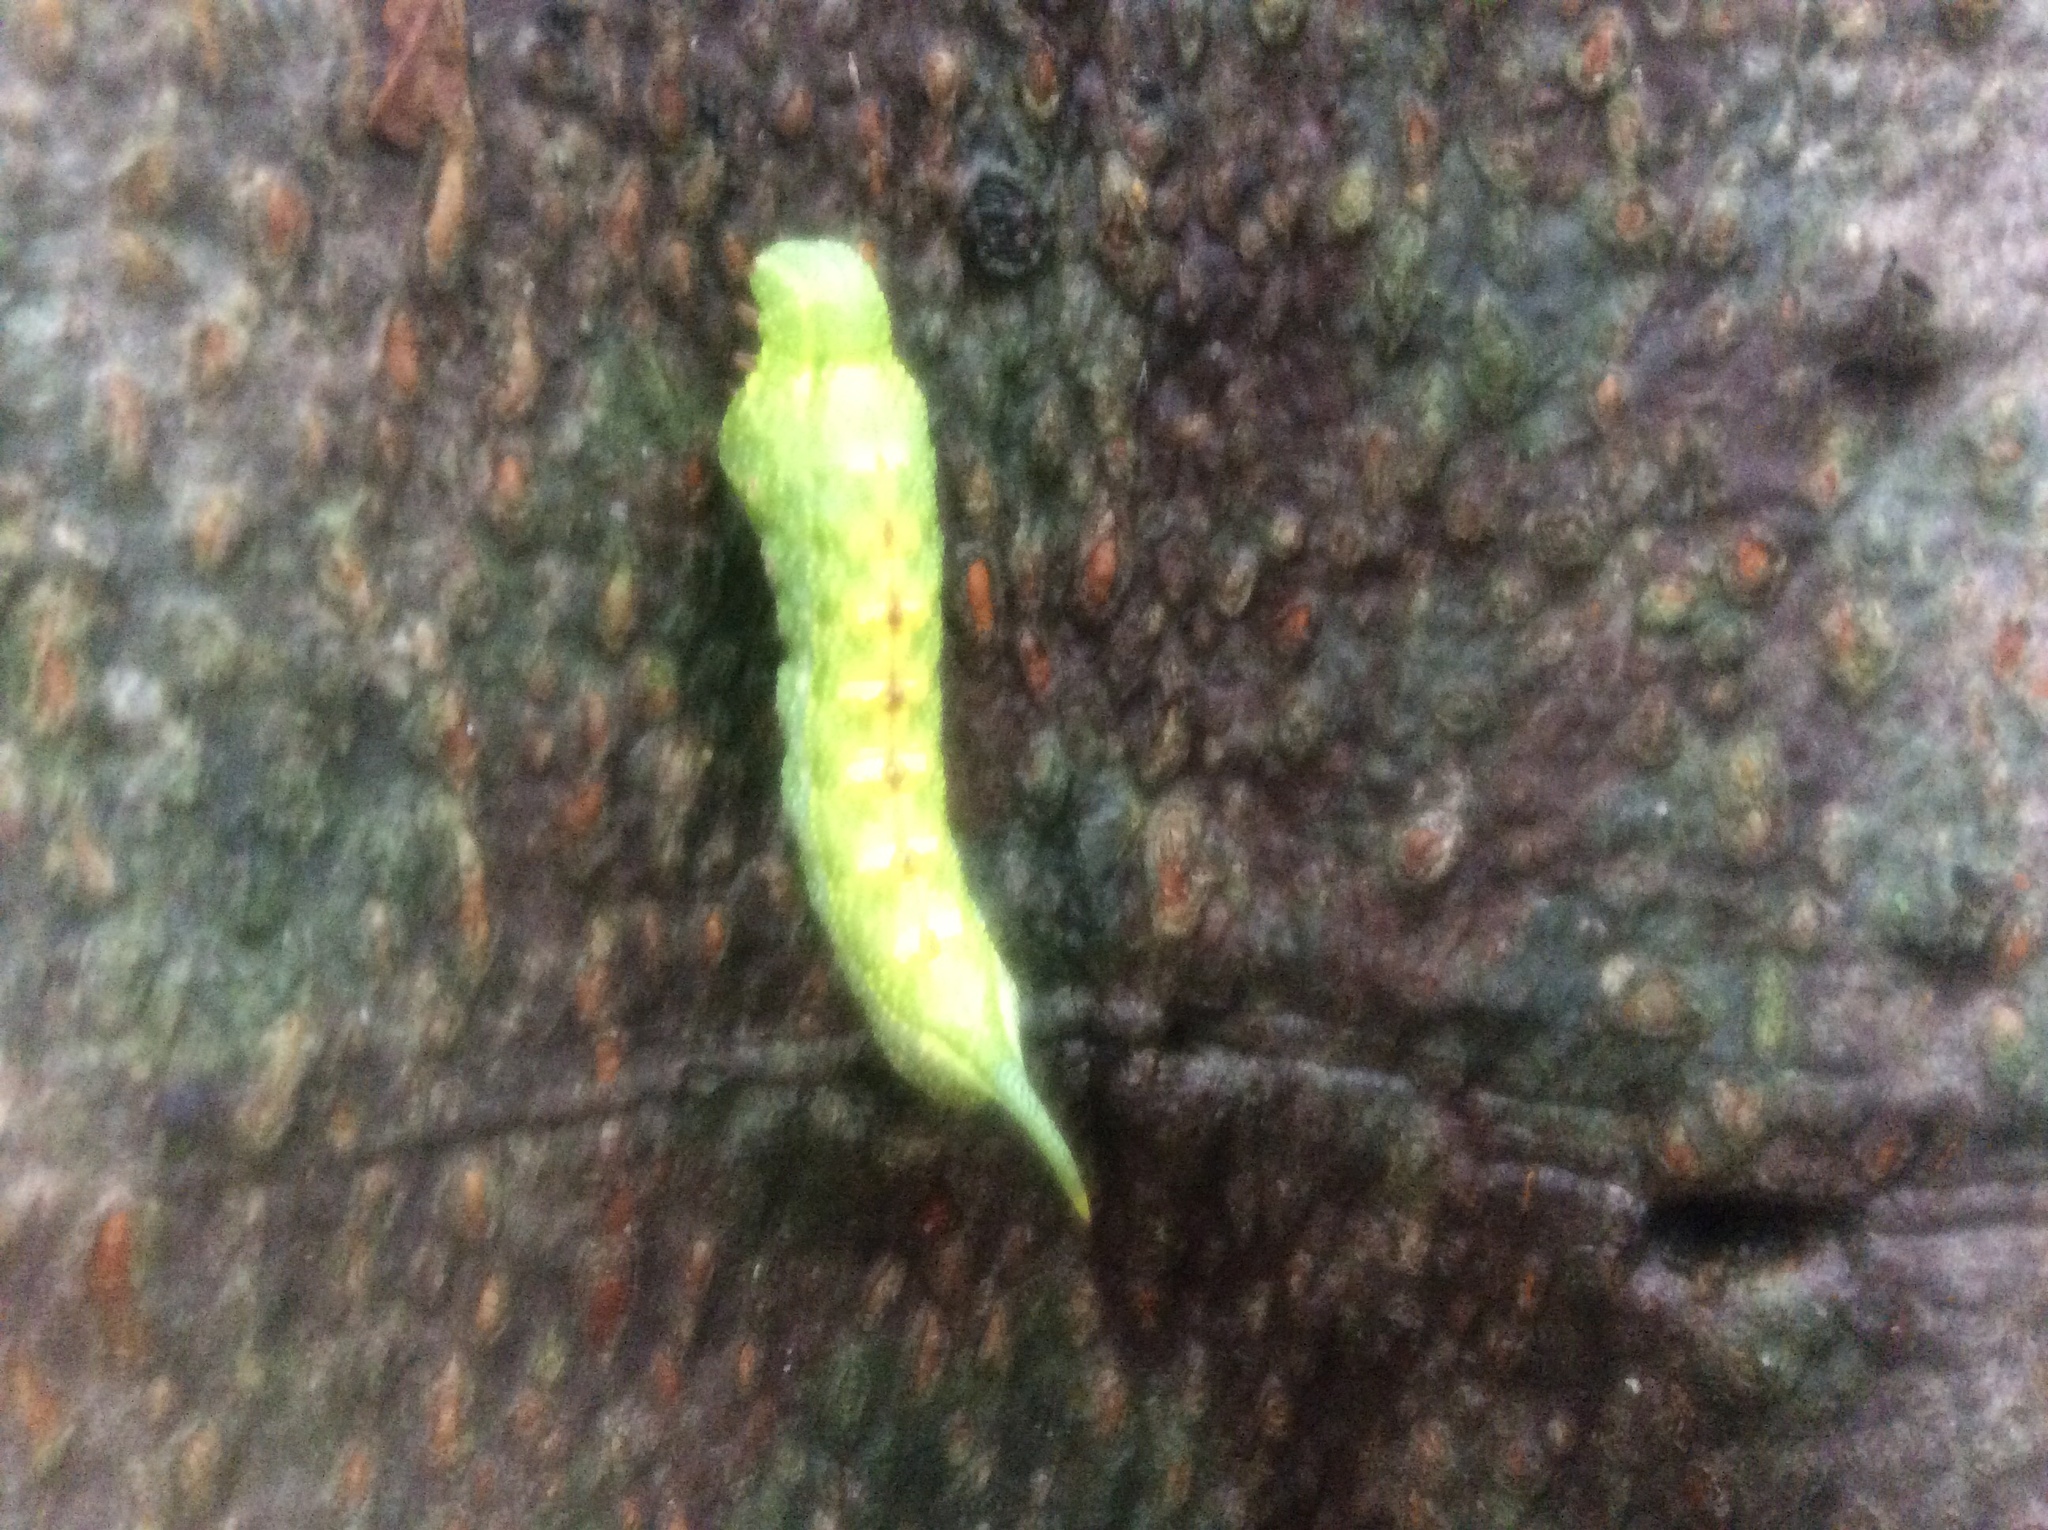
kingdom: Animalia
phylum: Arthropoda
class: Insecta
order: Lepidoptera
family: Sphingidae
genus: Darapsa
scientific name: Darapsa myron
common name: Hog sphinx
